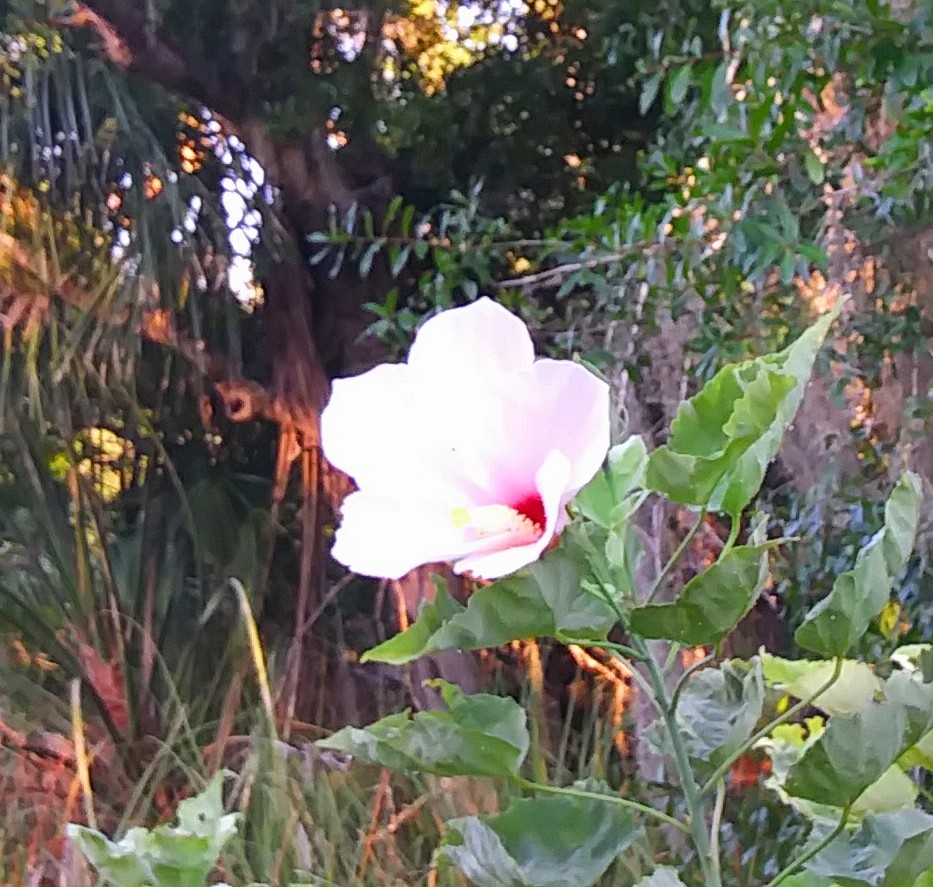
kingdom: Plantae
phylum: Tracheophyta
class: Magnoliopsida
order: Malvales
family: Malvaceae
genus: Hibiscus
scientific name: Hibiscus grandiflorus
